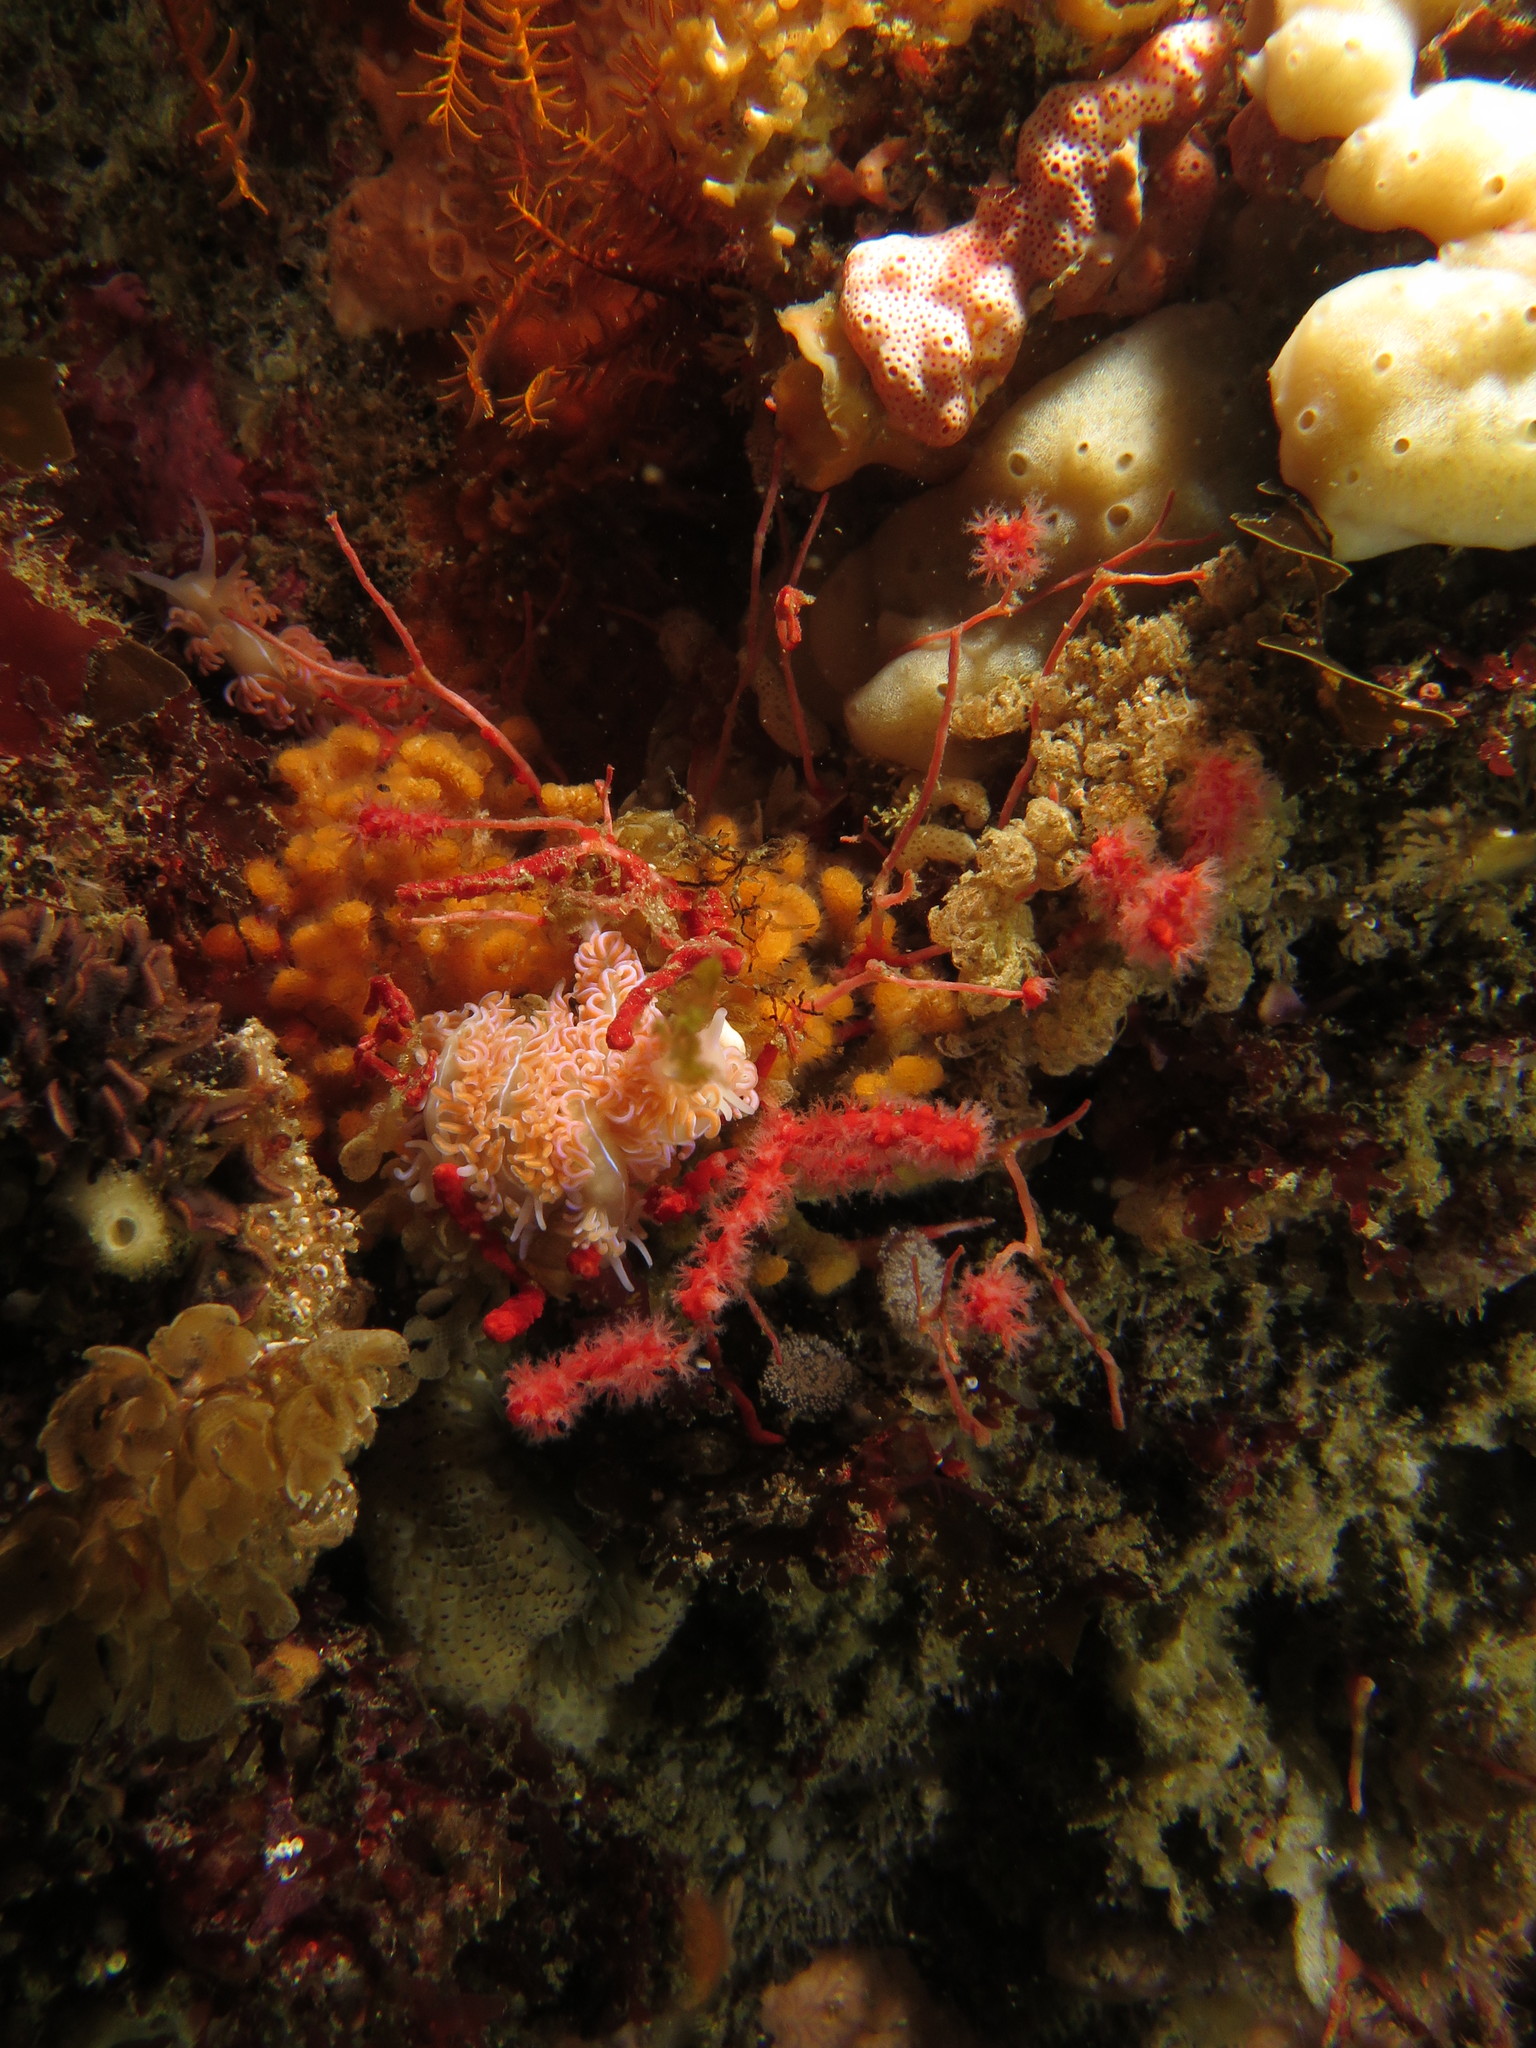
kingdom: Animalia
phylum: Mollusca
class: Gastropoda
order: Nudibranchia
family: Myrrhinidae
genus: Phyllodesmium
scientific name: Phyllodesmium horridum
